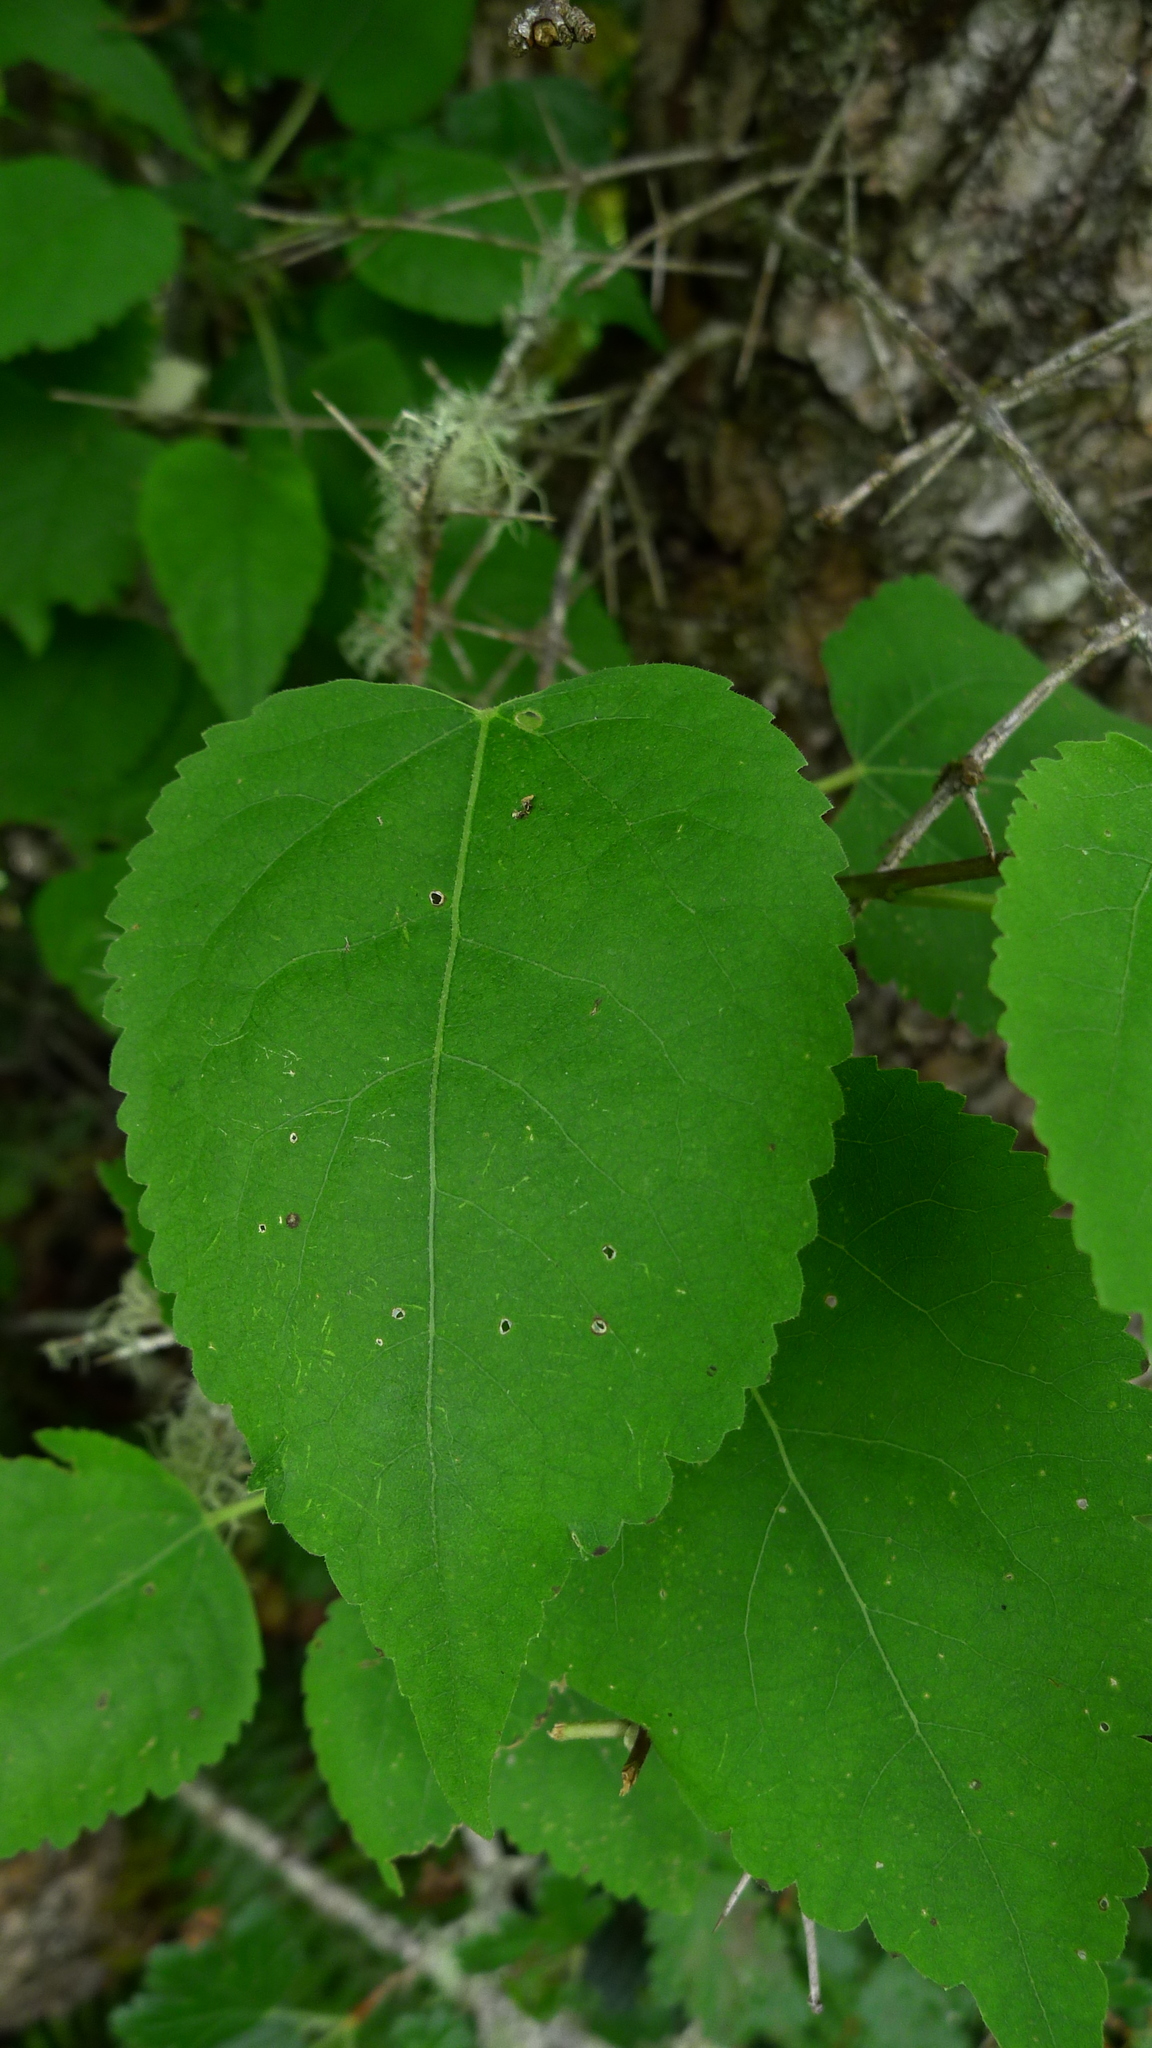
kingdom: Plantae
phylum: Tracheophyta
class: Magnoliopsida
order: Malvales
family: Malvaceae
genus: Hoheria
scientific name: Hoheria lyallii
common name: Lacebark
